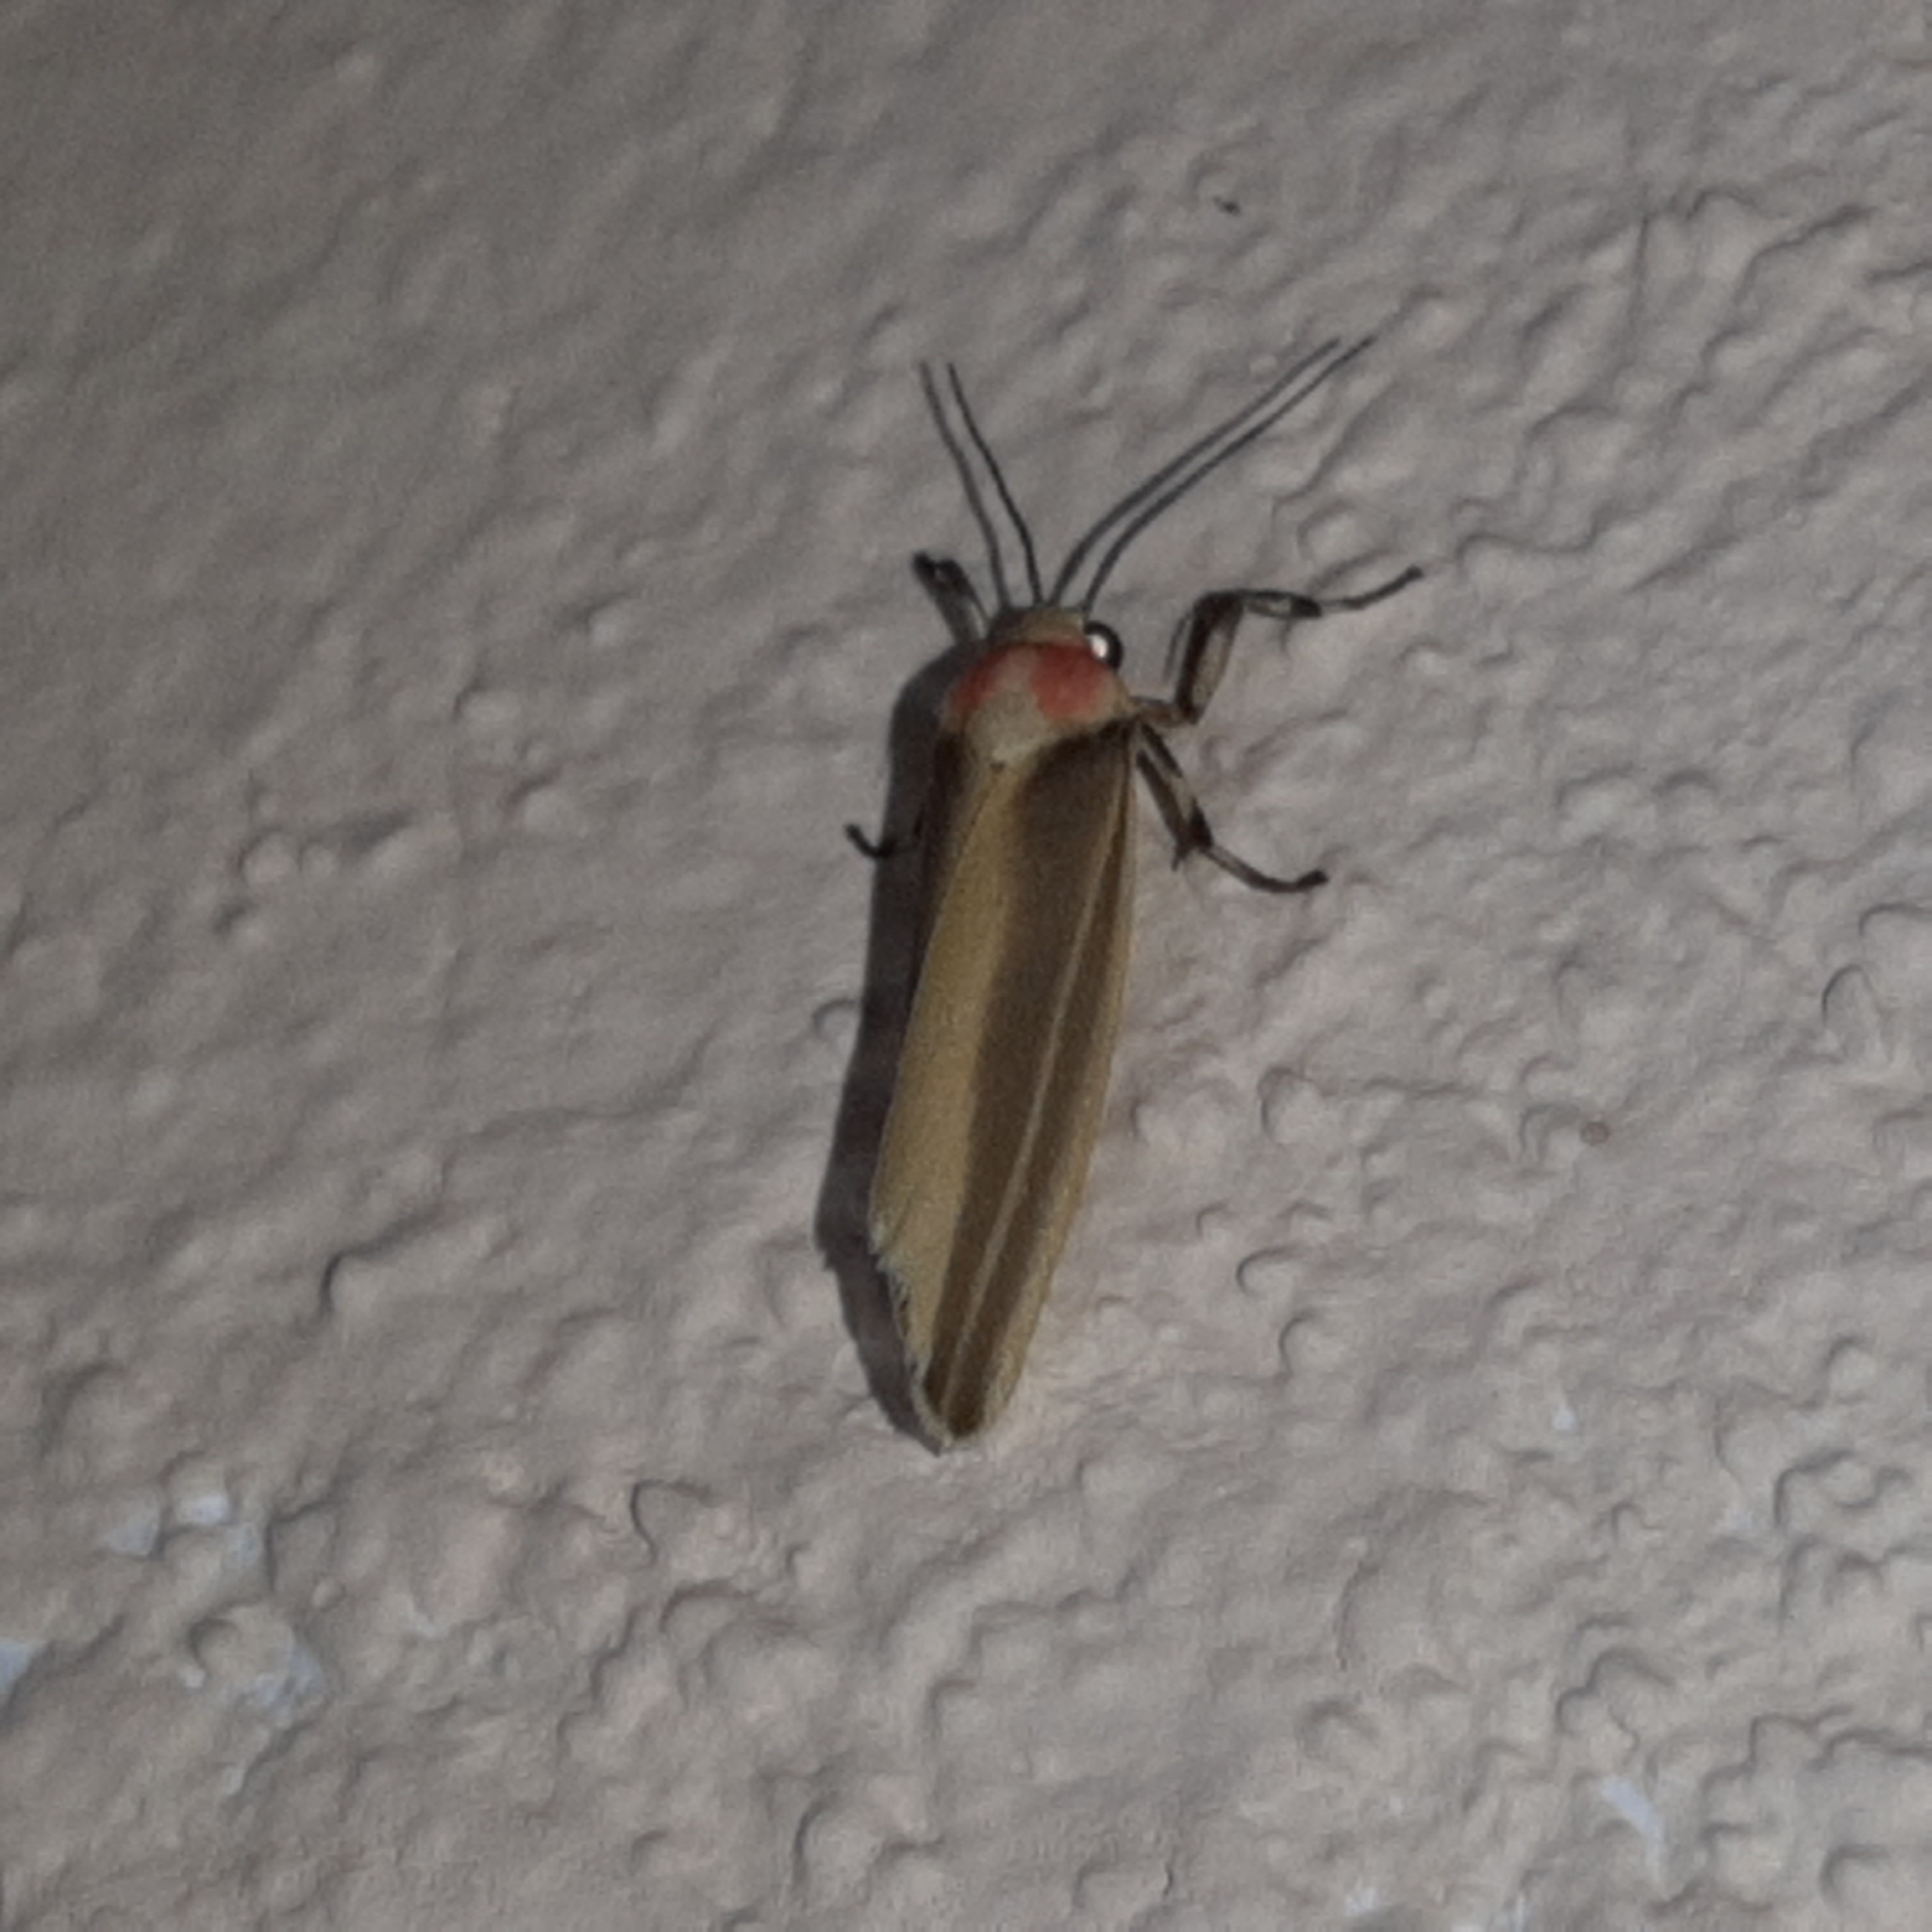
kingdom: Animalia
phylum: Arthropoda
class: Insecta
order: Lepidoptera
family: Erebidae
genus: Rhabdatomis
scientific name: Rhabdatomis laudamia
